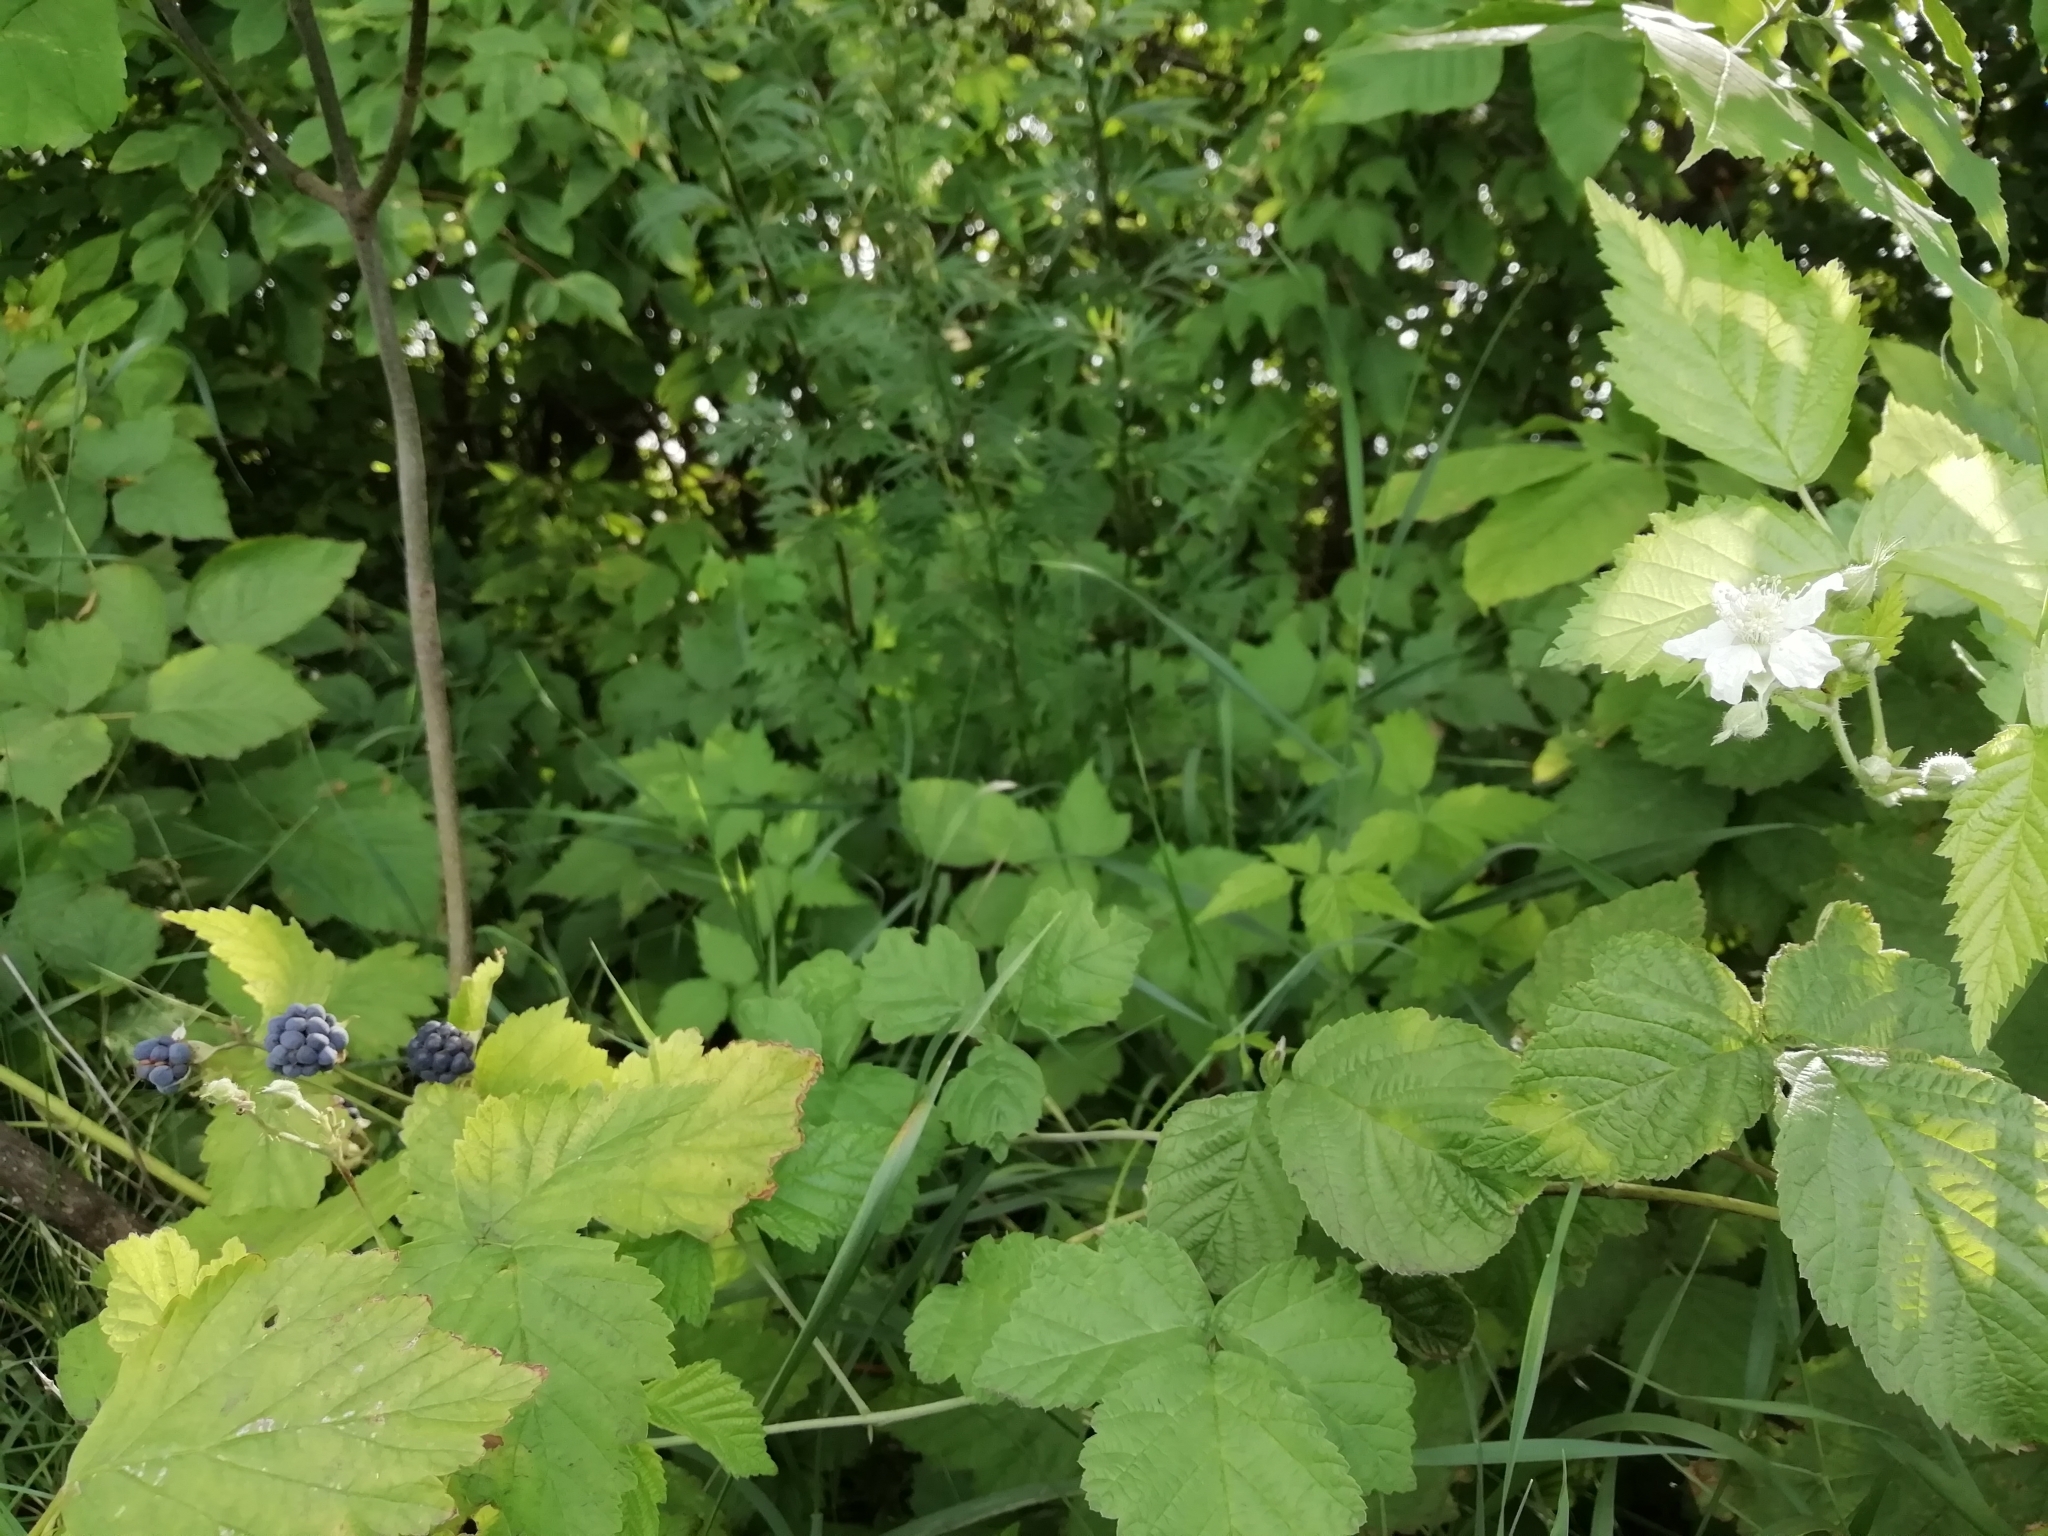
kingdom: Plantae
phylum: Tracheophyta
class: Magnoliopsida
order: Rosales
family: Rosaceae
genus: Rubus
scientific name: Rubus caesius
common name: Dewberry
